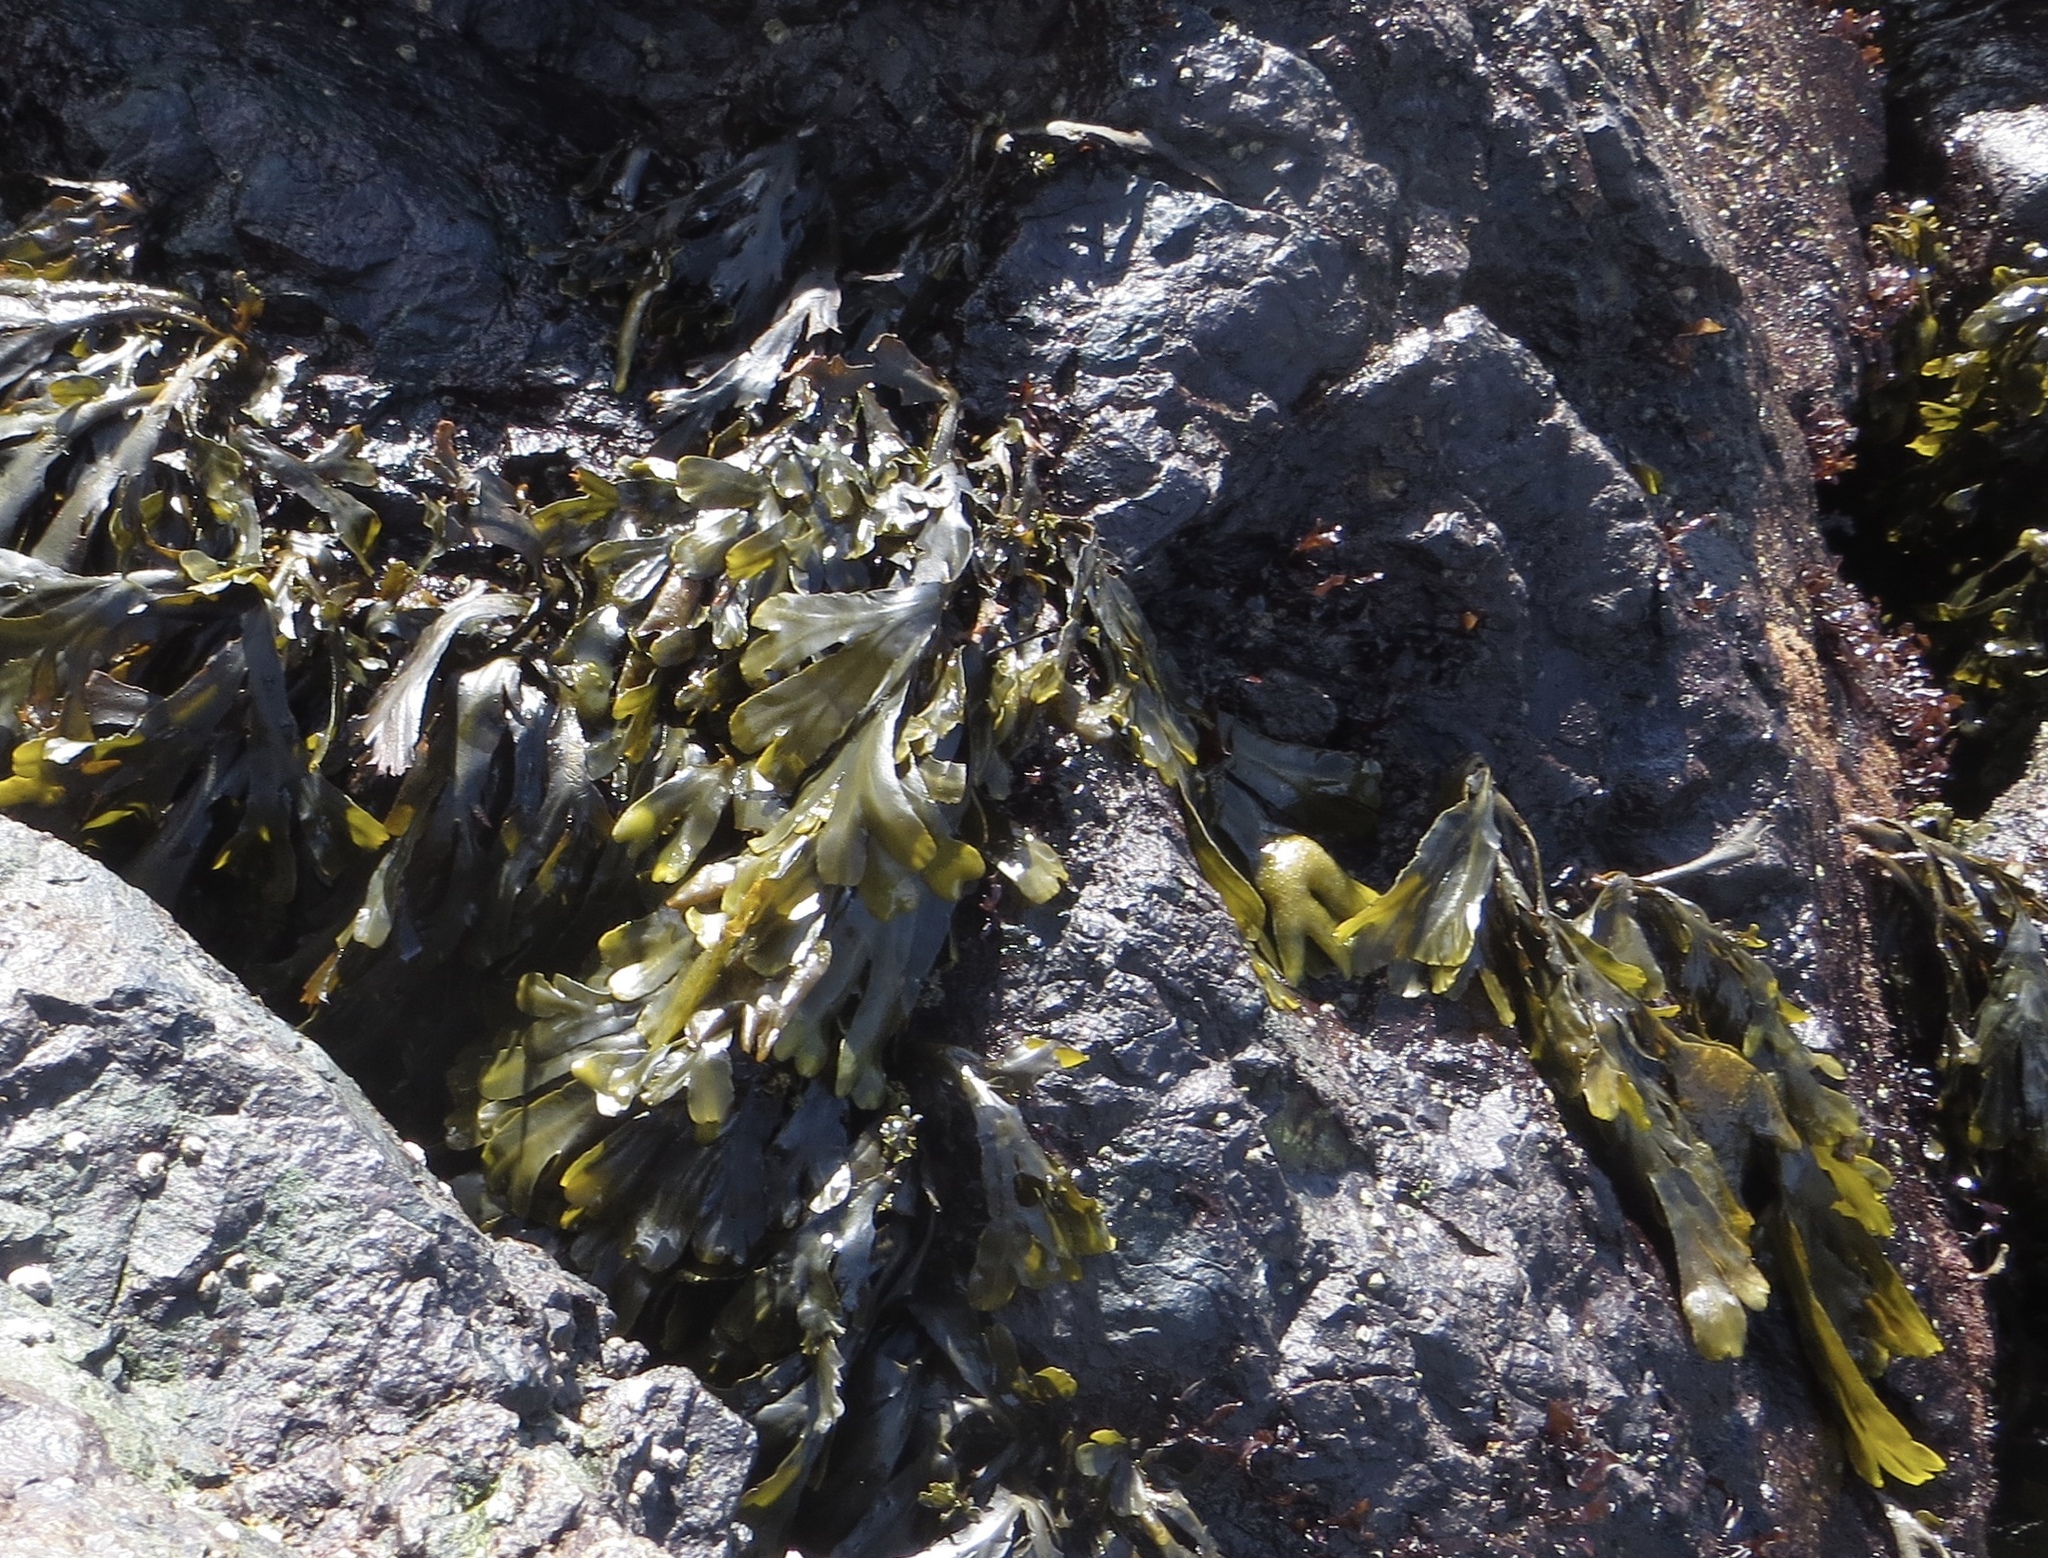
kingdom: Chromista
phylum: Ochrophyta
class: Phaeophyceae
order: Fucales
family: Fucaceae
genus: Fucus
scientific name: Fucus distichus
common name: Rockweed
